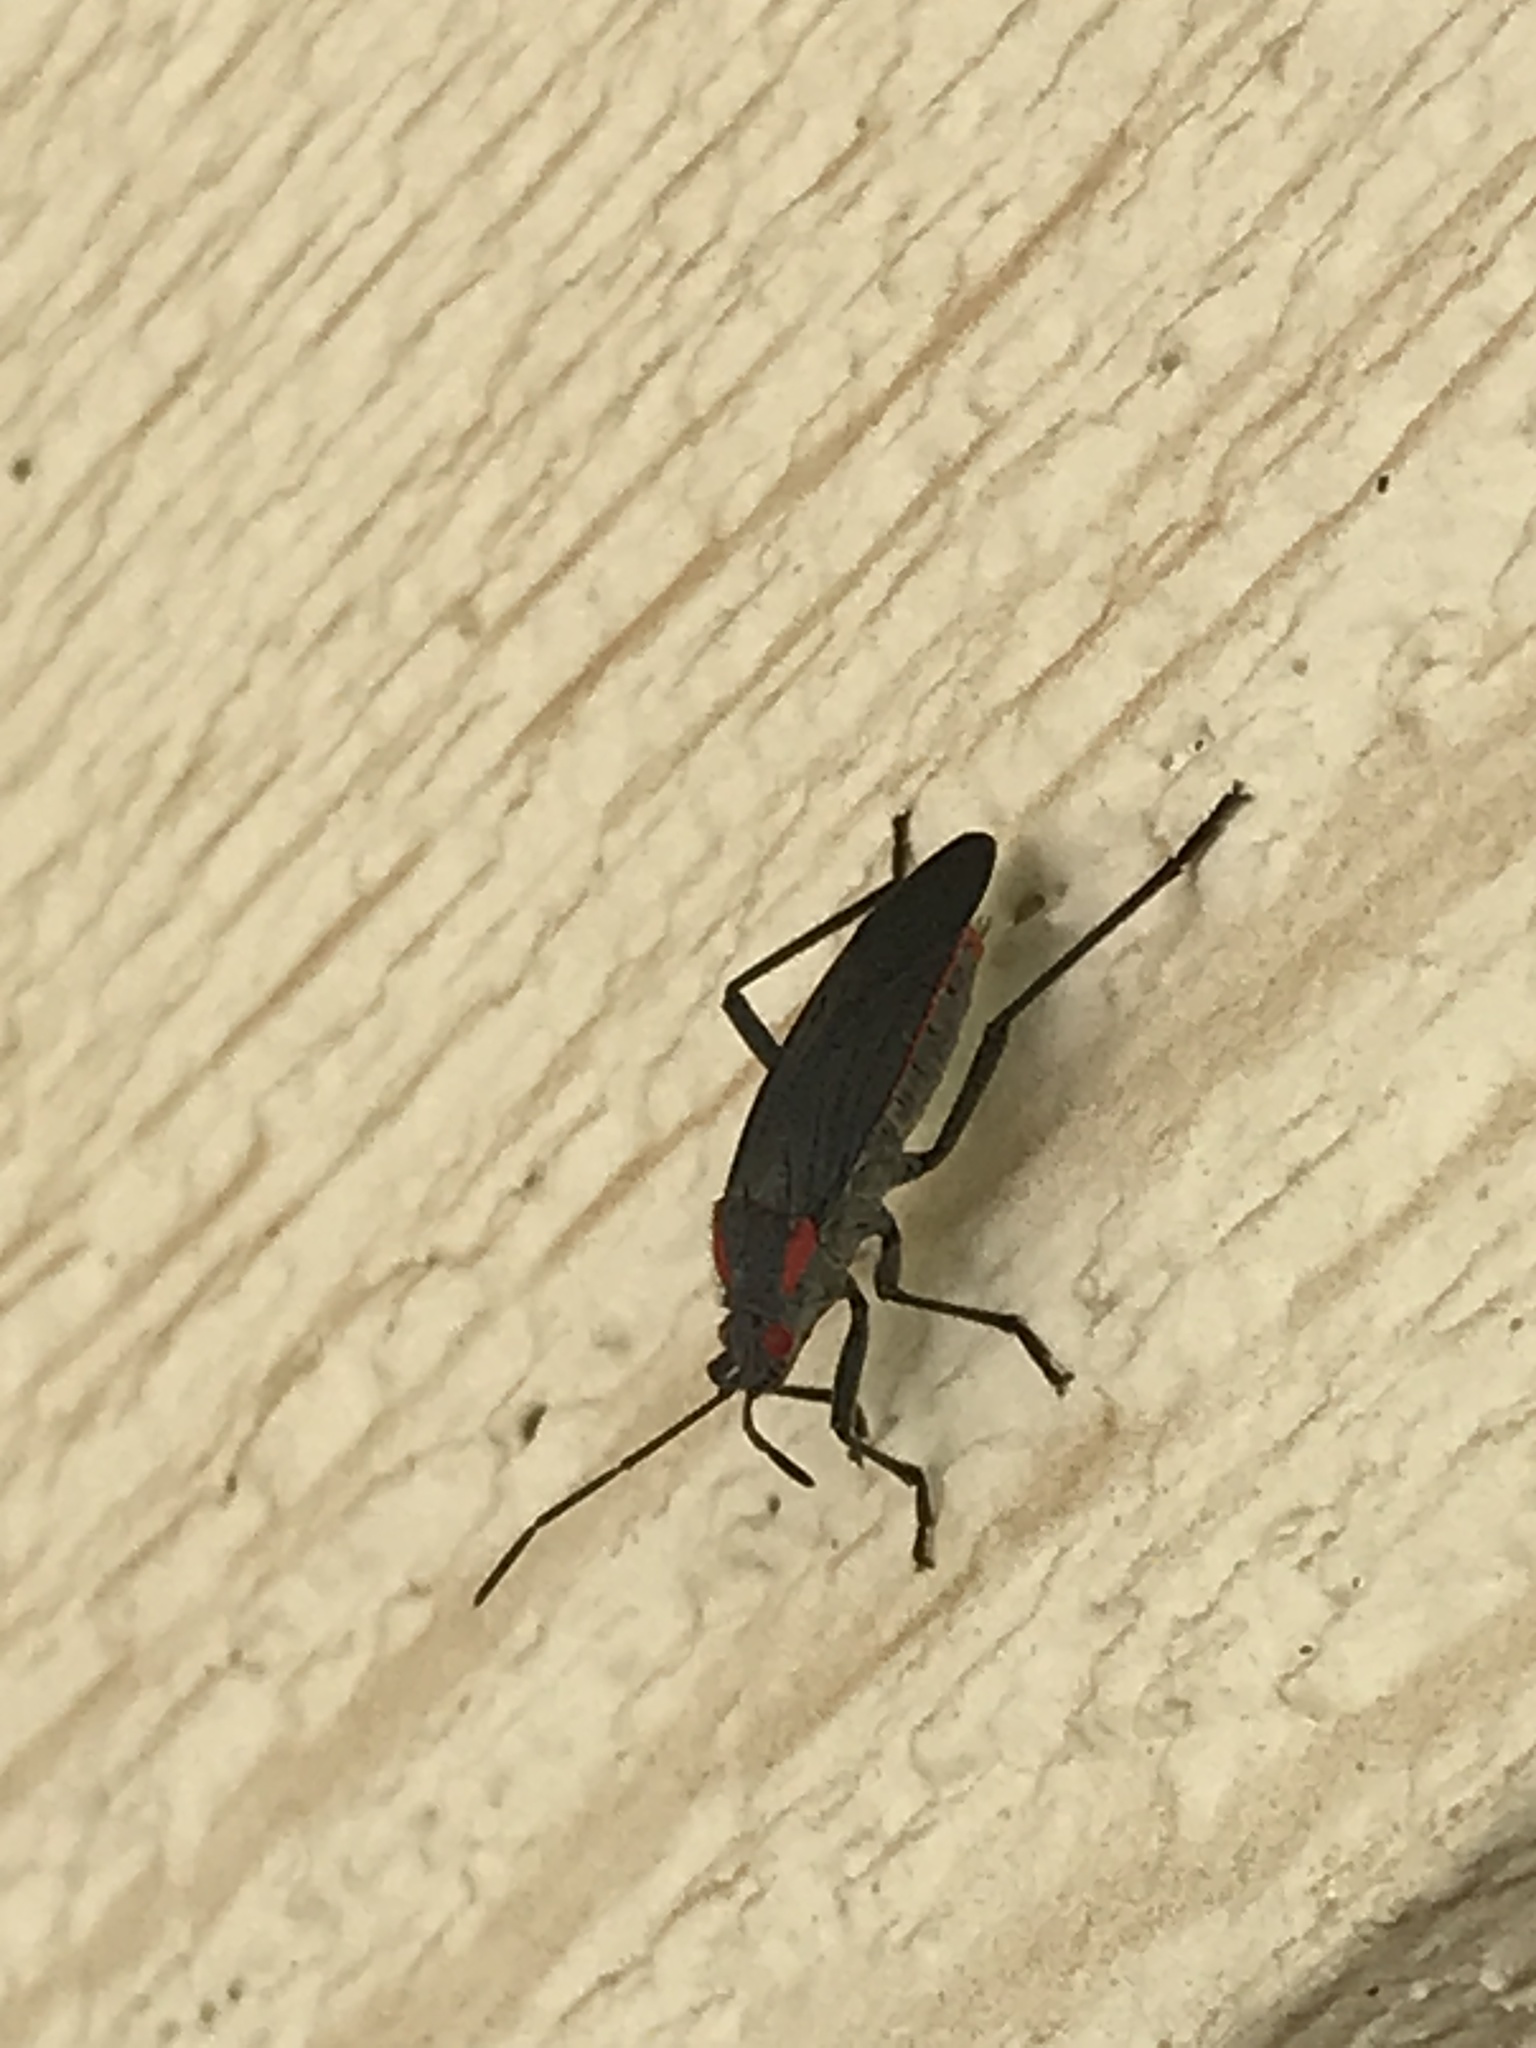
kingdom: Animalia
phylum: Arthropoda
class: Insecta
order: Hemiptera
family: Rhopalidae
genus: Jadera
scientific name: Jadera haematoloma
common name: Red-shouldered bug
